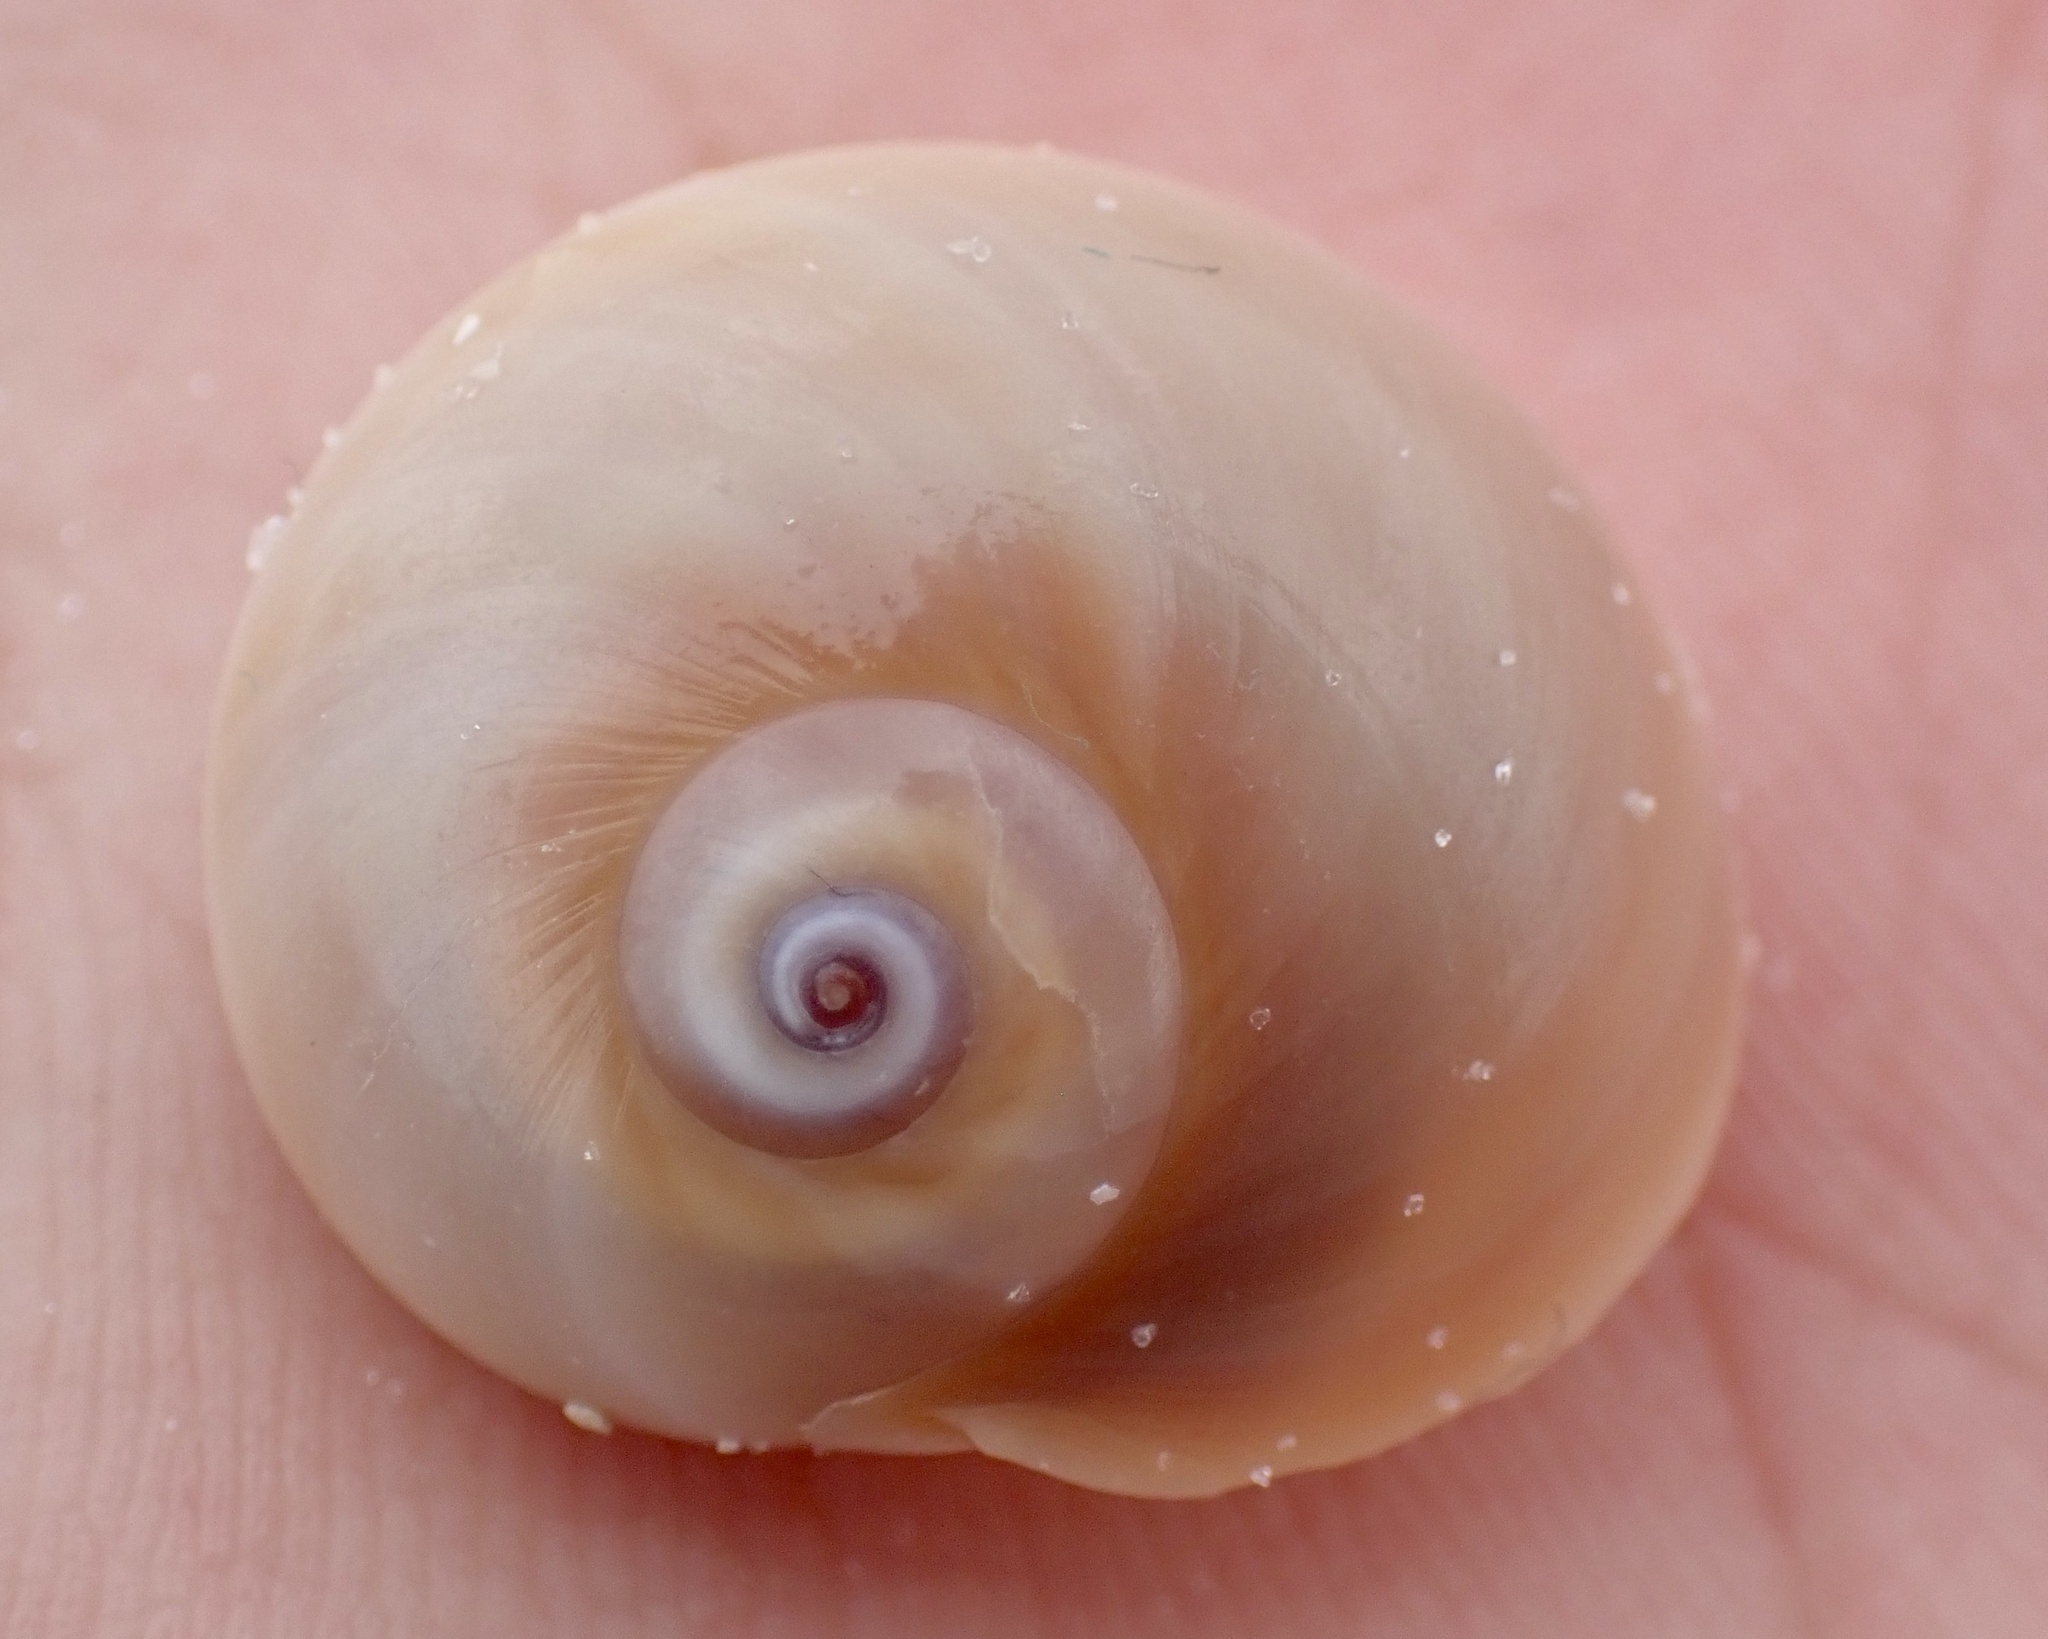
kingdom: Animalia
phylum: Mollusca
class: Gastropoda
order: Littorinimorpha
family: Naticidae
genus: Neverita
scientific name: Neverita duplicata
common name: Lobed moonsnail
